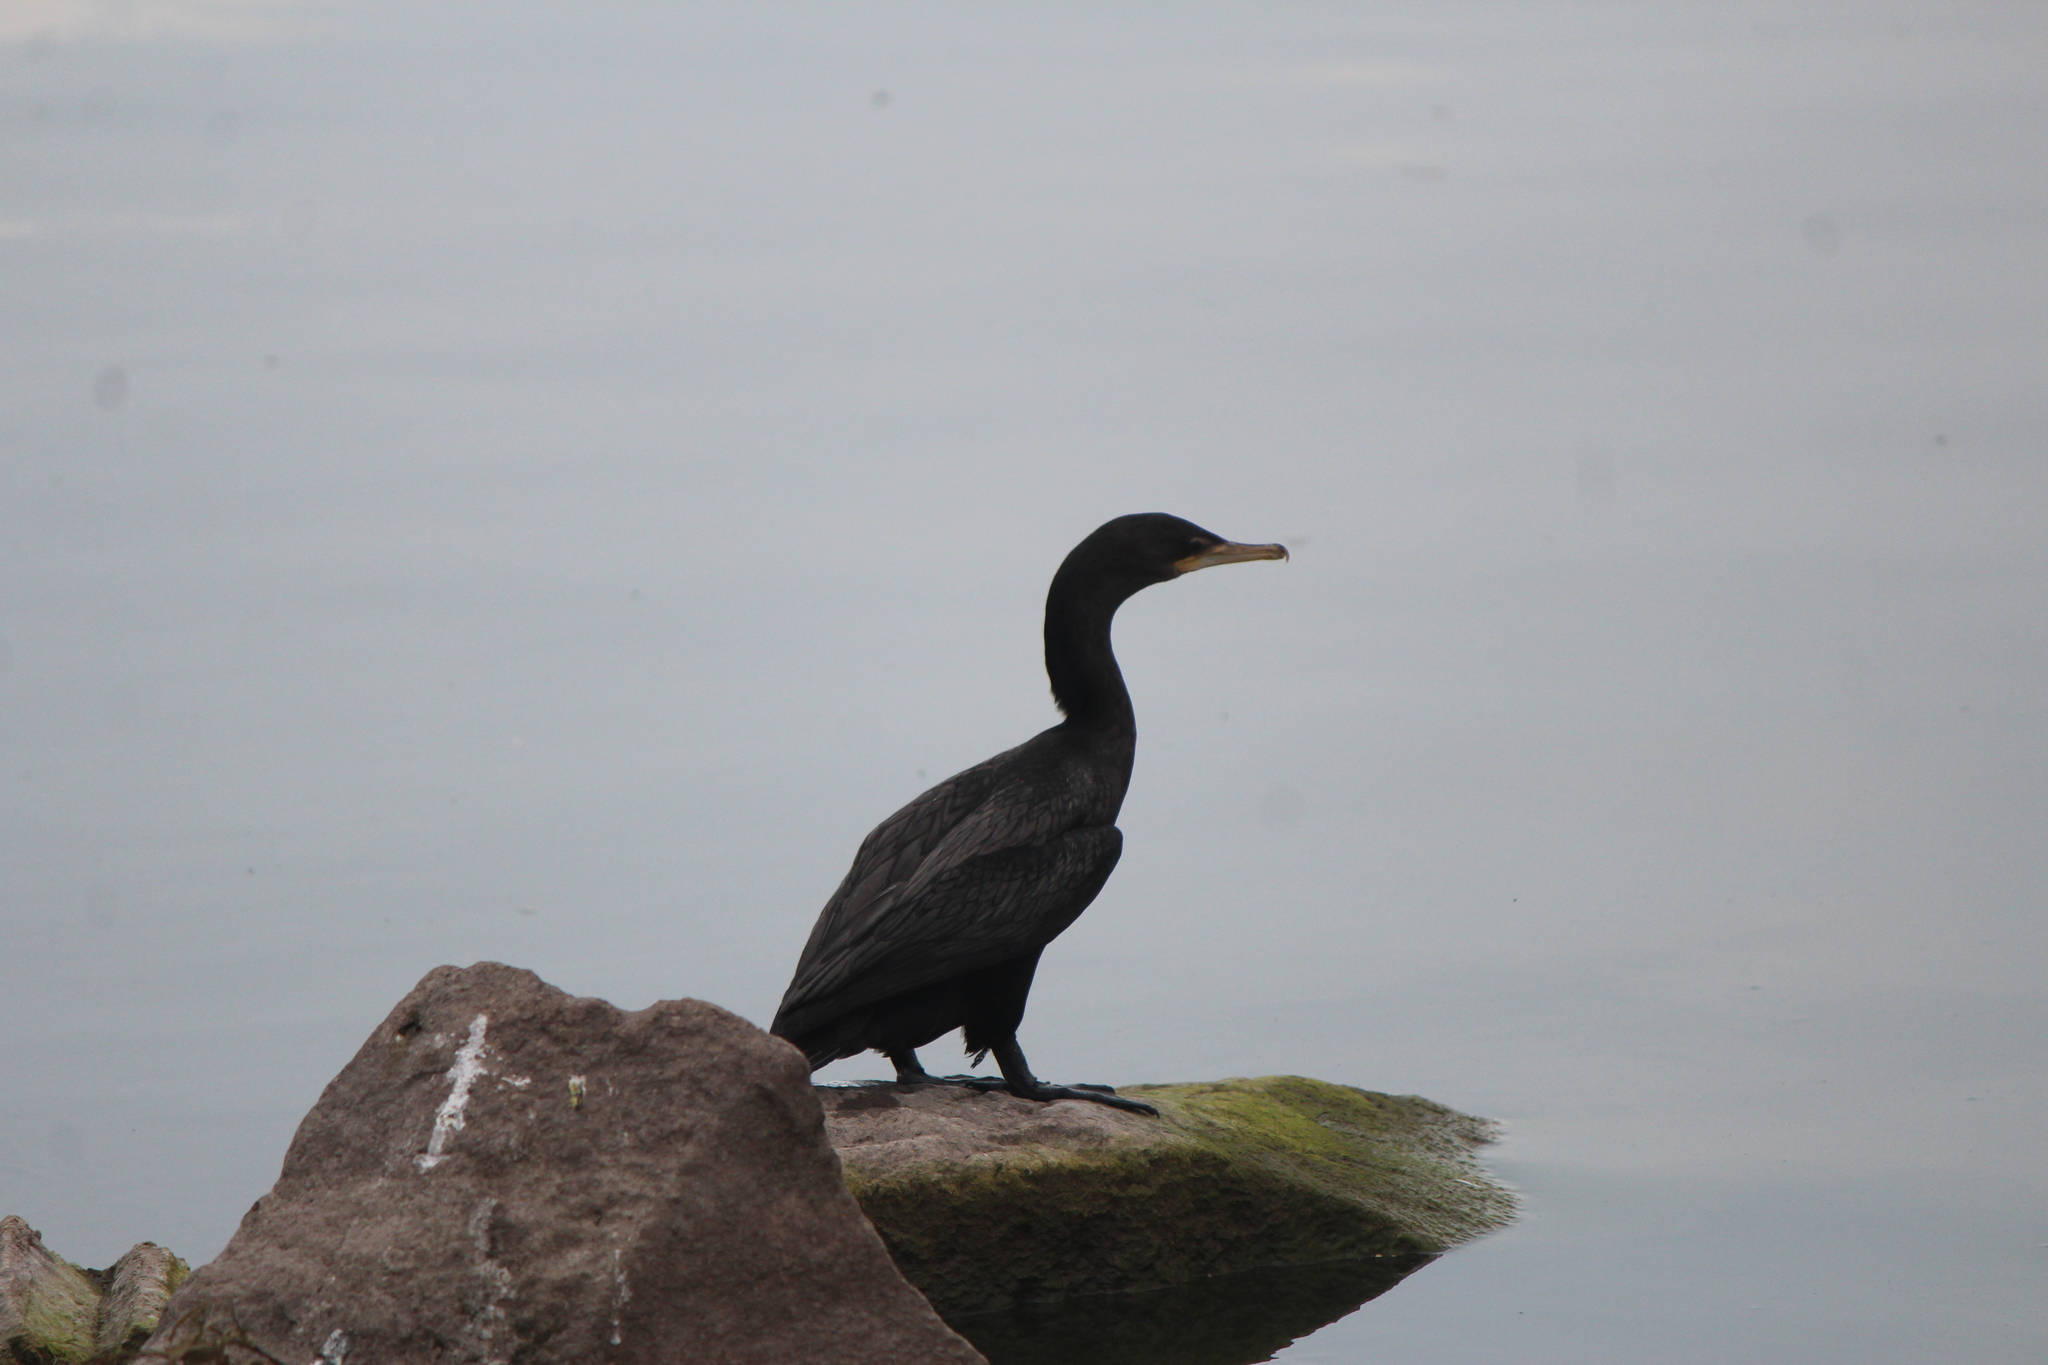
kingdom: Animalia
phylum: Chordata
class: Aves
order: Suliformes
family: Phalacrocoracidae
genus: Phalacrocorax
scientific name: Phalacrocorax brasilianus
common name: Neotropic cormorant
